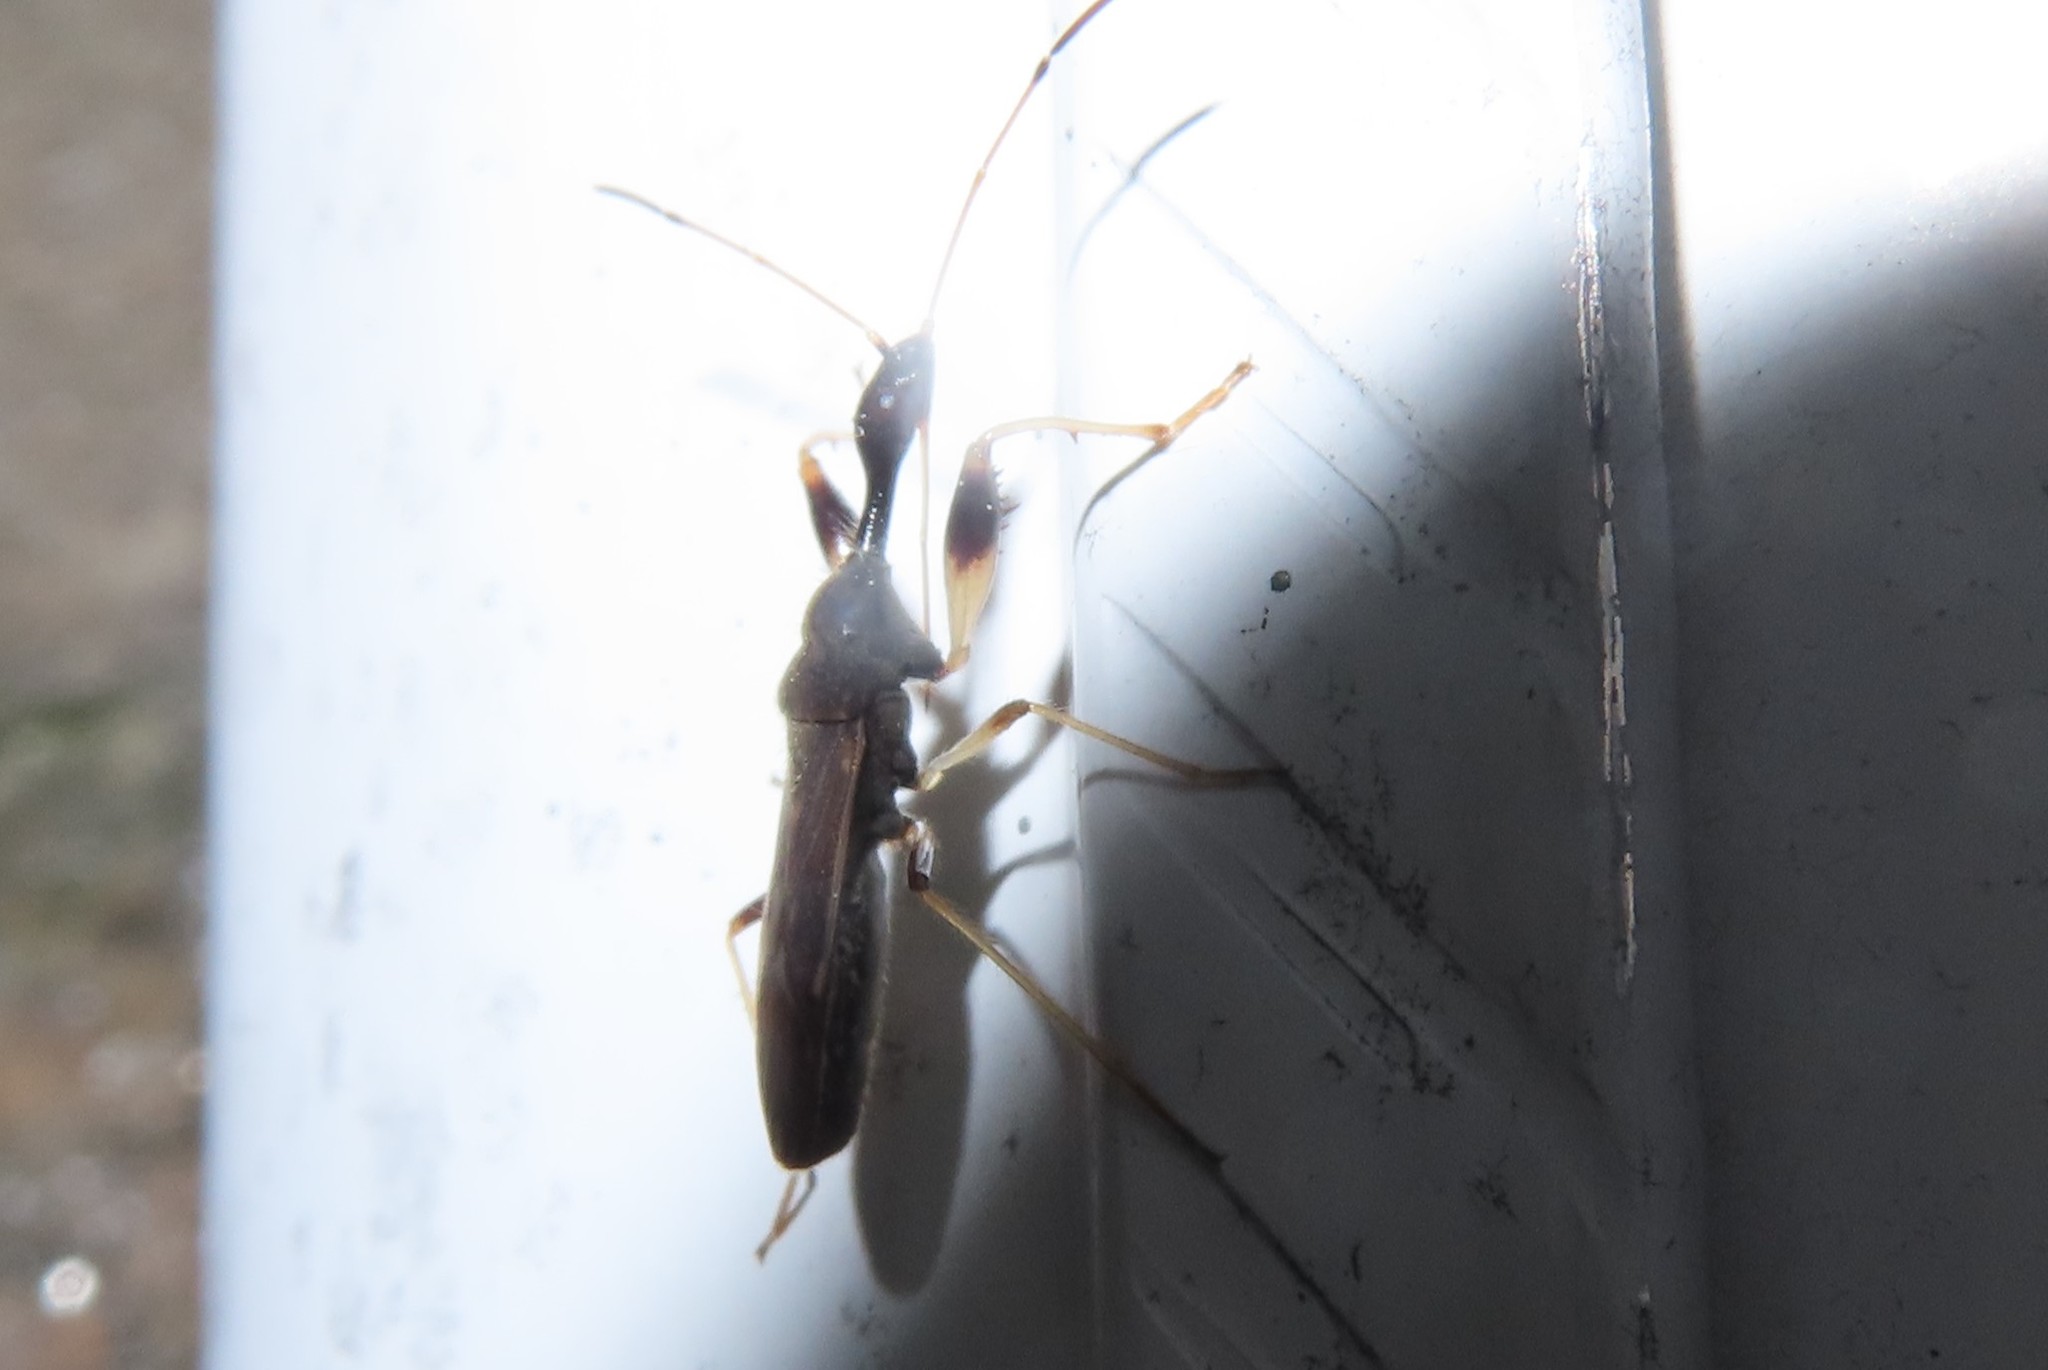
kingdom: Animalia
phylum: Arthropoda
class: Insecta
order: Hemiptera
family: Rhyparochromidae
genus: Myodocha
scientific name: Myodocha serripes
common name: Long-necked seed bug
